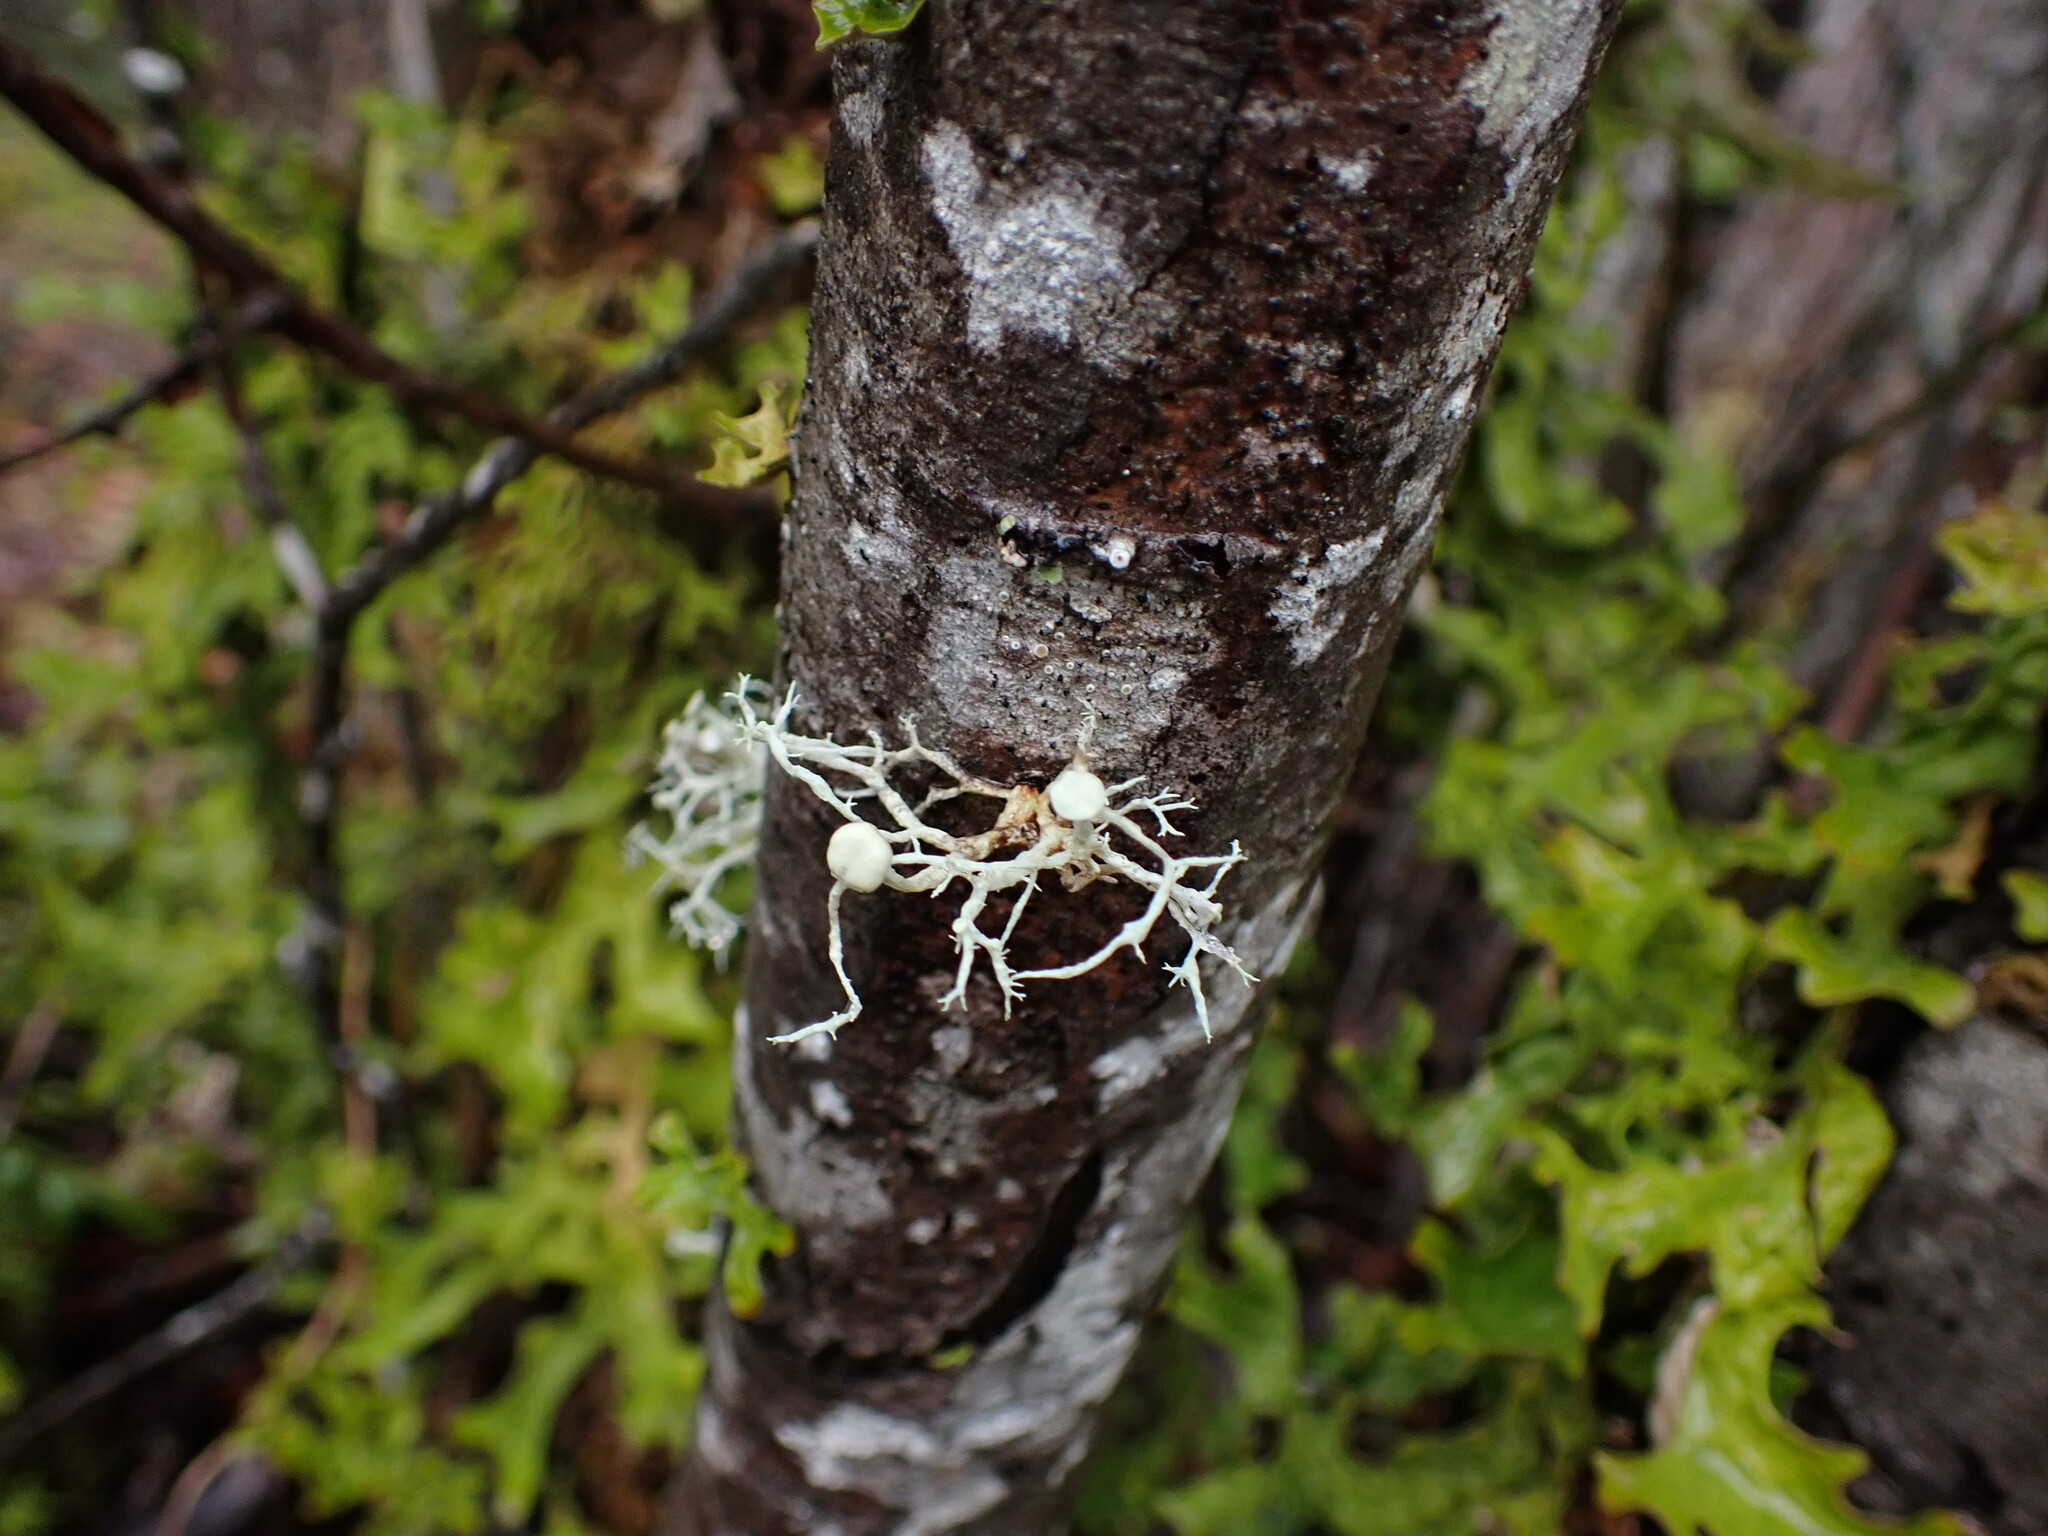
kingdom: Fungi
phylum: Ascomycota
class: Lecanoromycetes
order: Lecanorales
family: Ramalinaceae
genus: Ramalina
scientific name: Ramalina dilacerata
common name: Punctured bushy lichen
